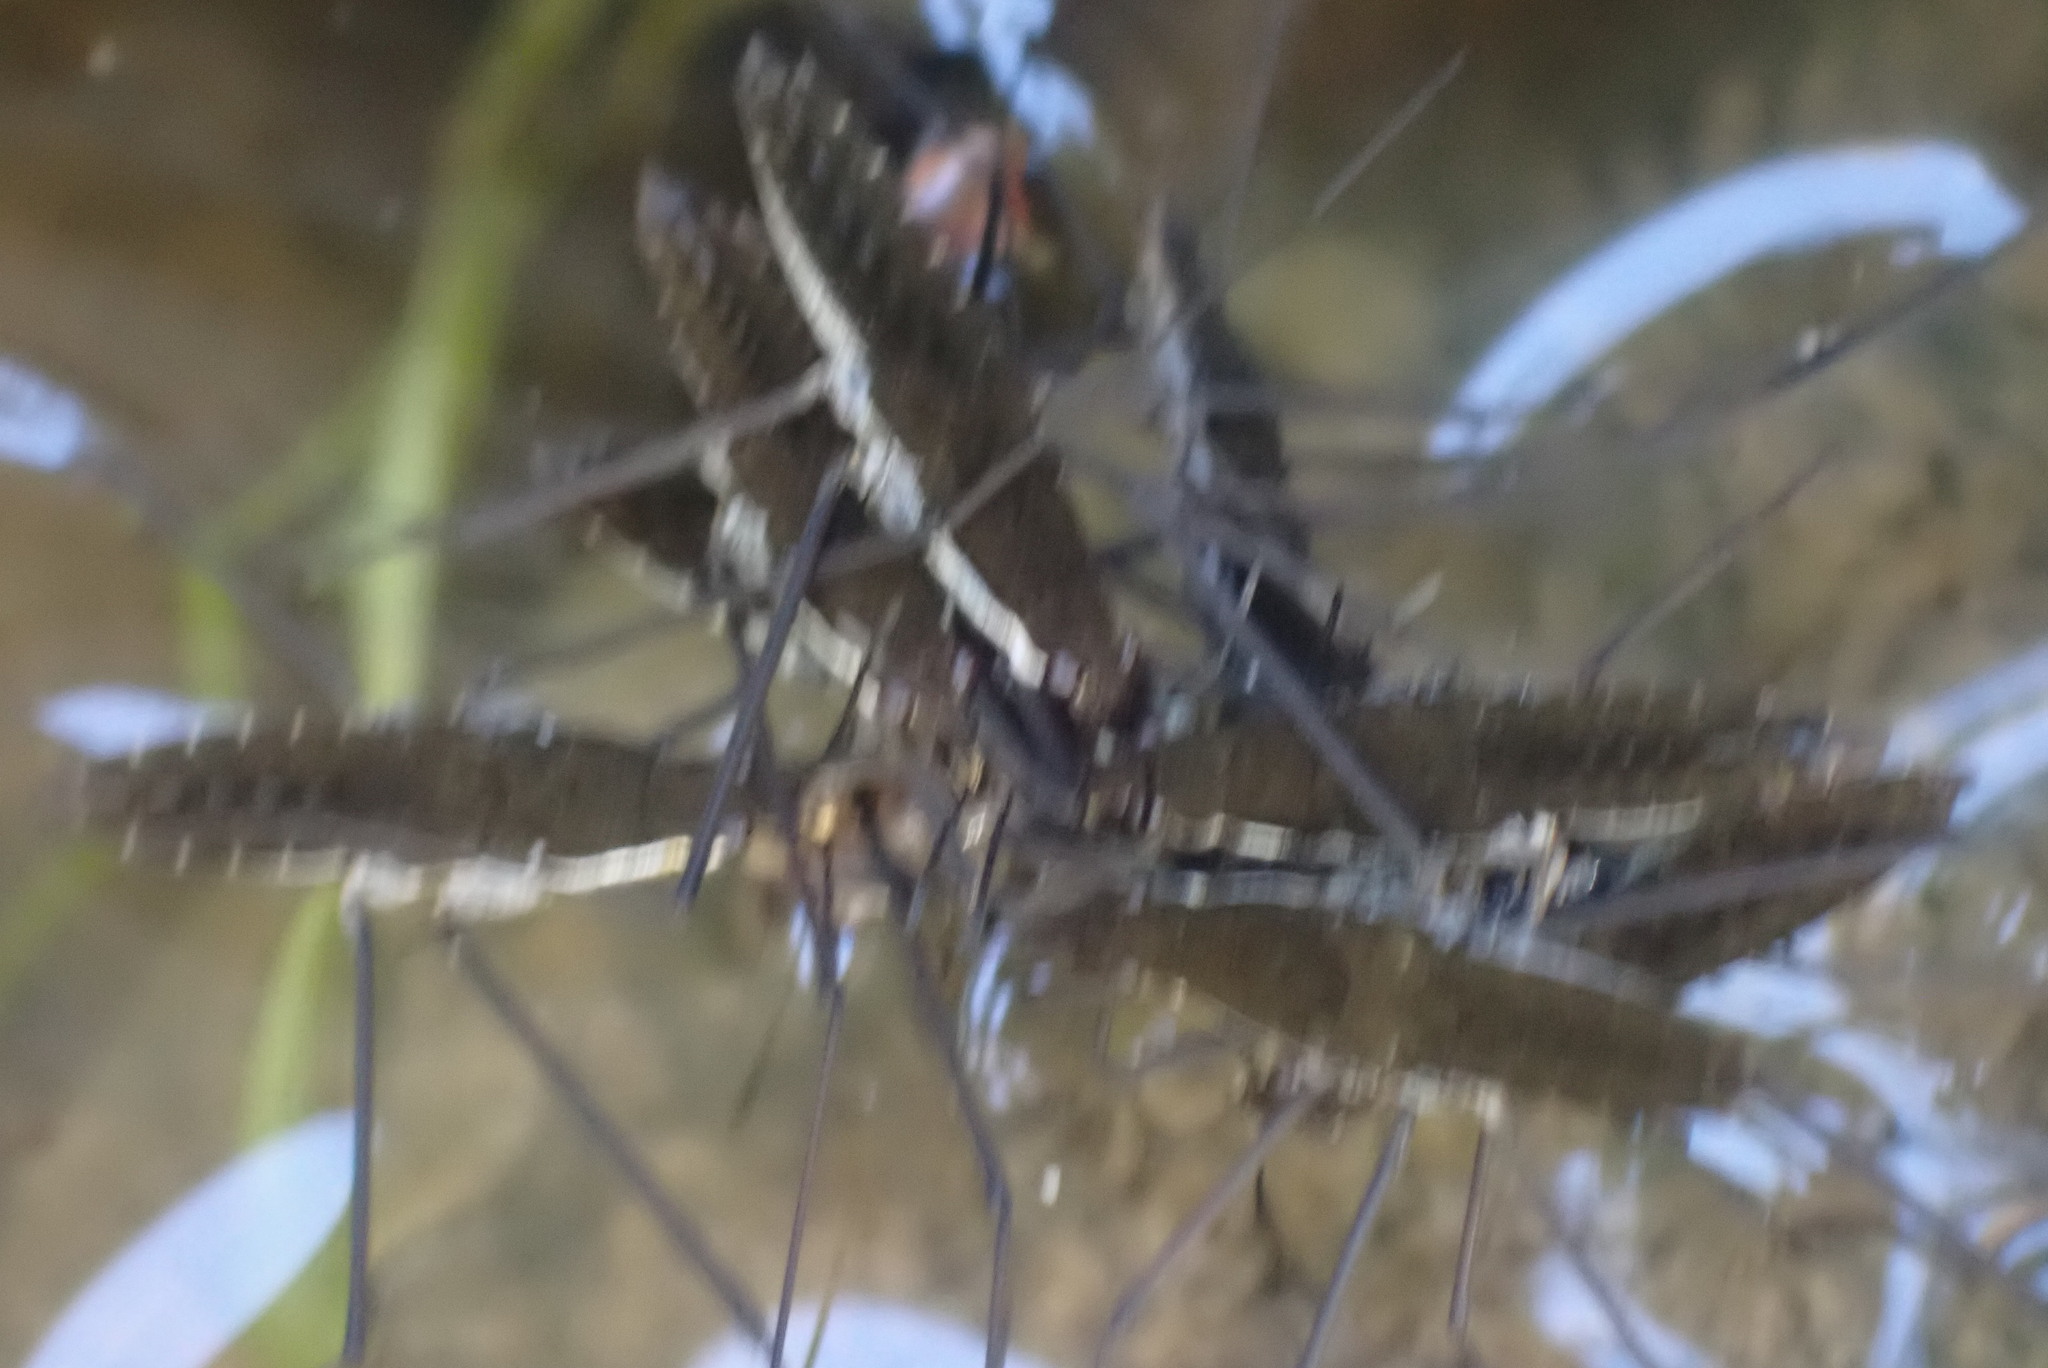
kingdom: Animalia
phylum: Arthropoda
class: Insecta
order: Hemiptera
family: Gerridae
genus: Aquarius
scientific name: Aquarius remigis
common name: Common water strider
